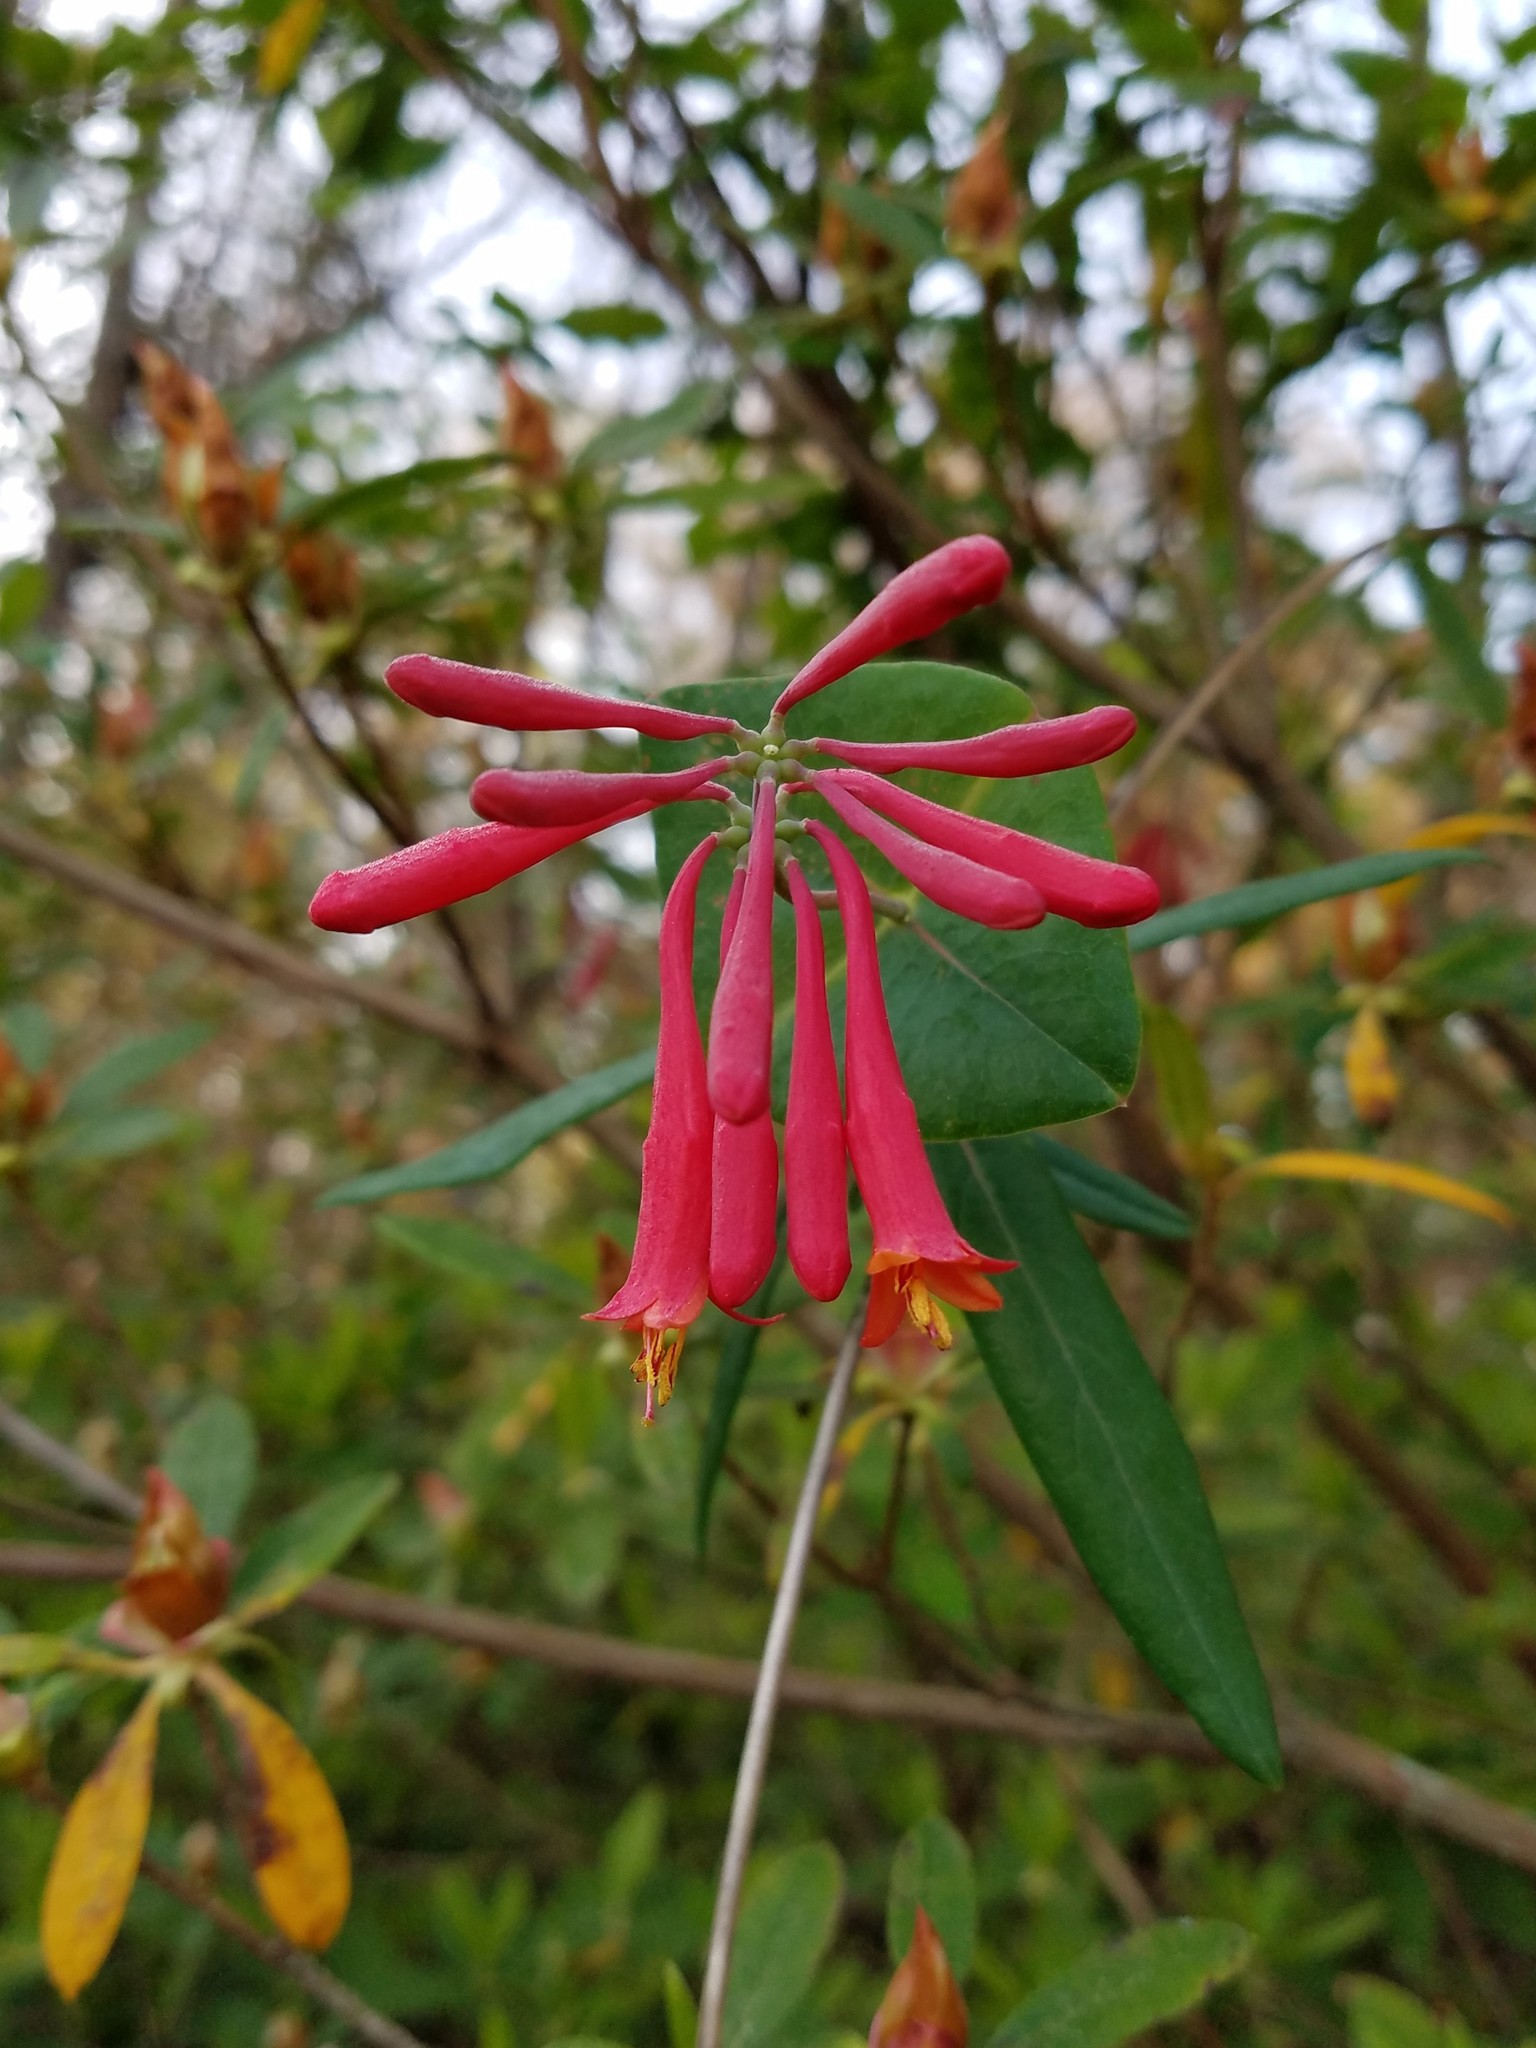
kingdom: Plantae
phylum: Tracheophyta
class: Magnoliopsida
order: Dipsacales
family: Caprifoliaceae
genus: Lonicera
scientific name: Lonicera sempervirens
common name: Coral honeysuckle
